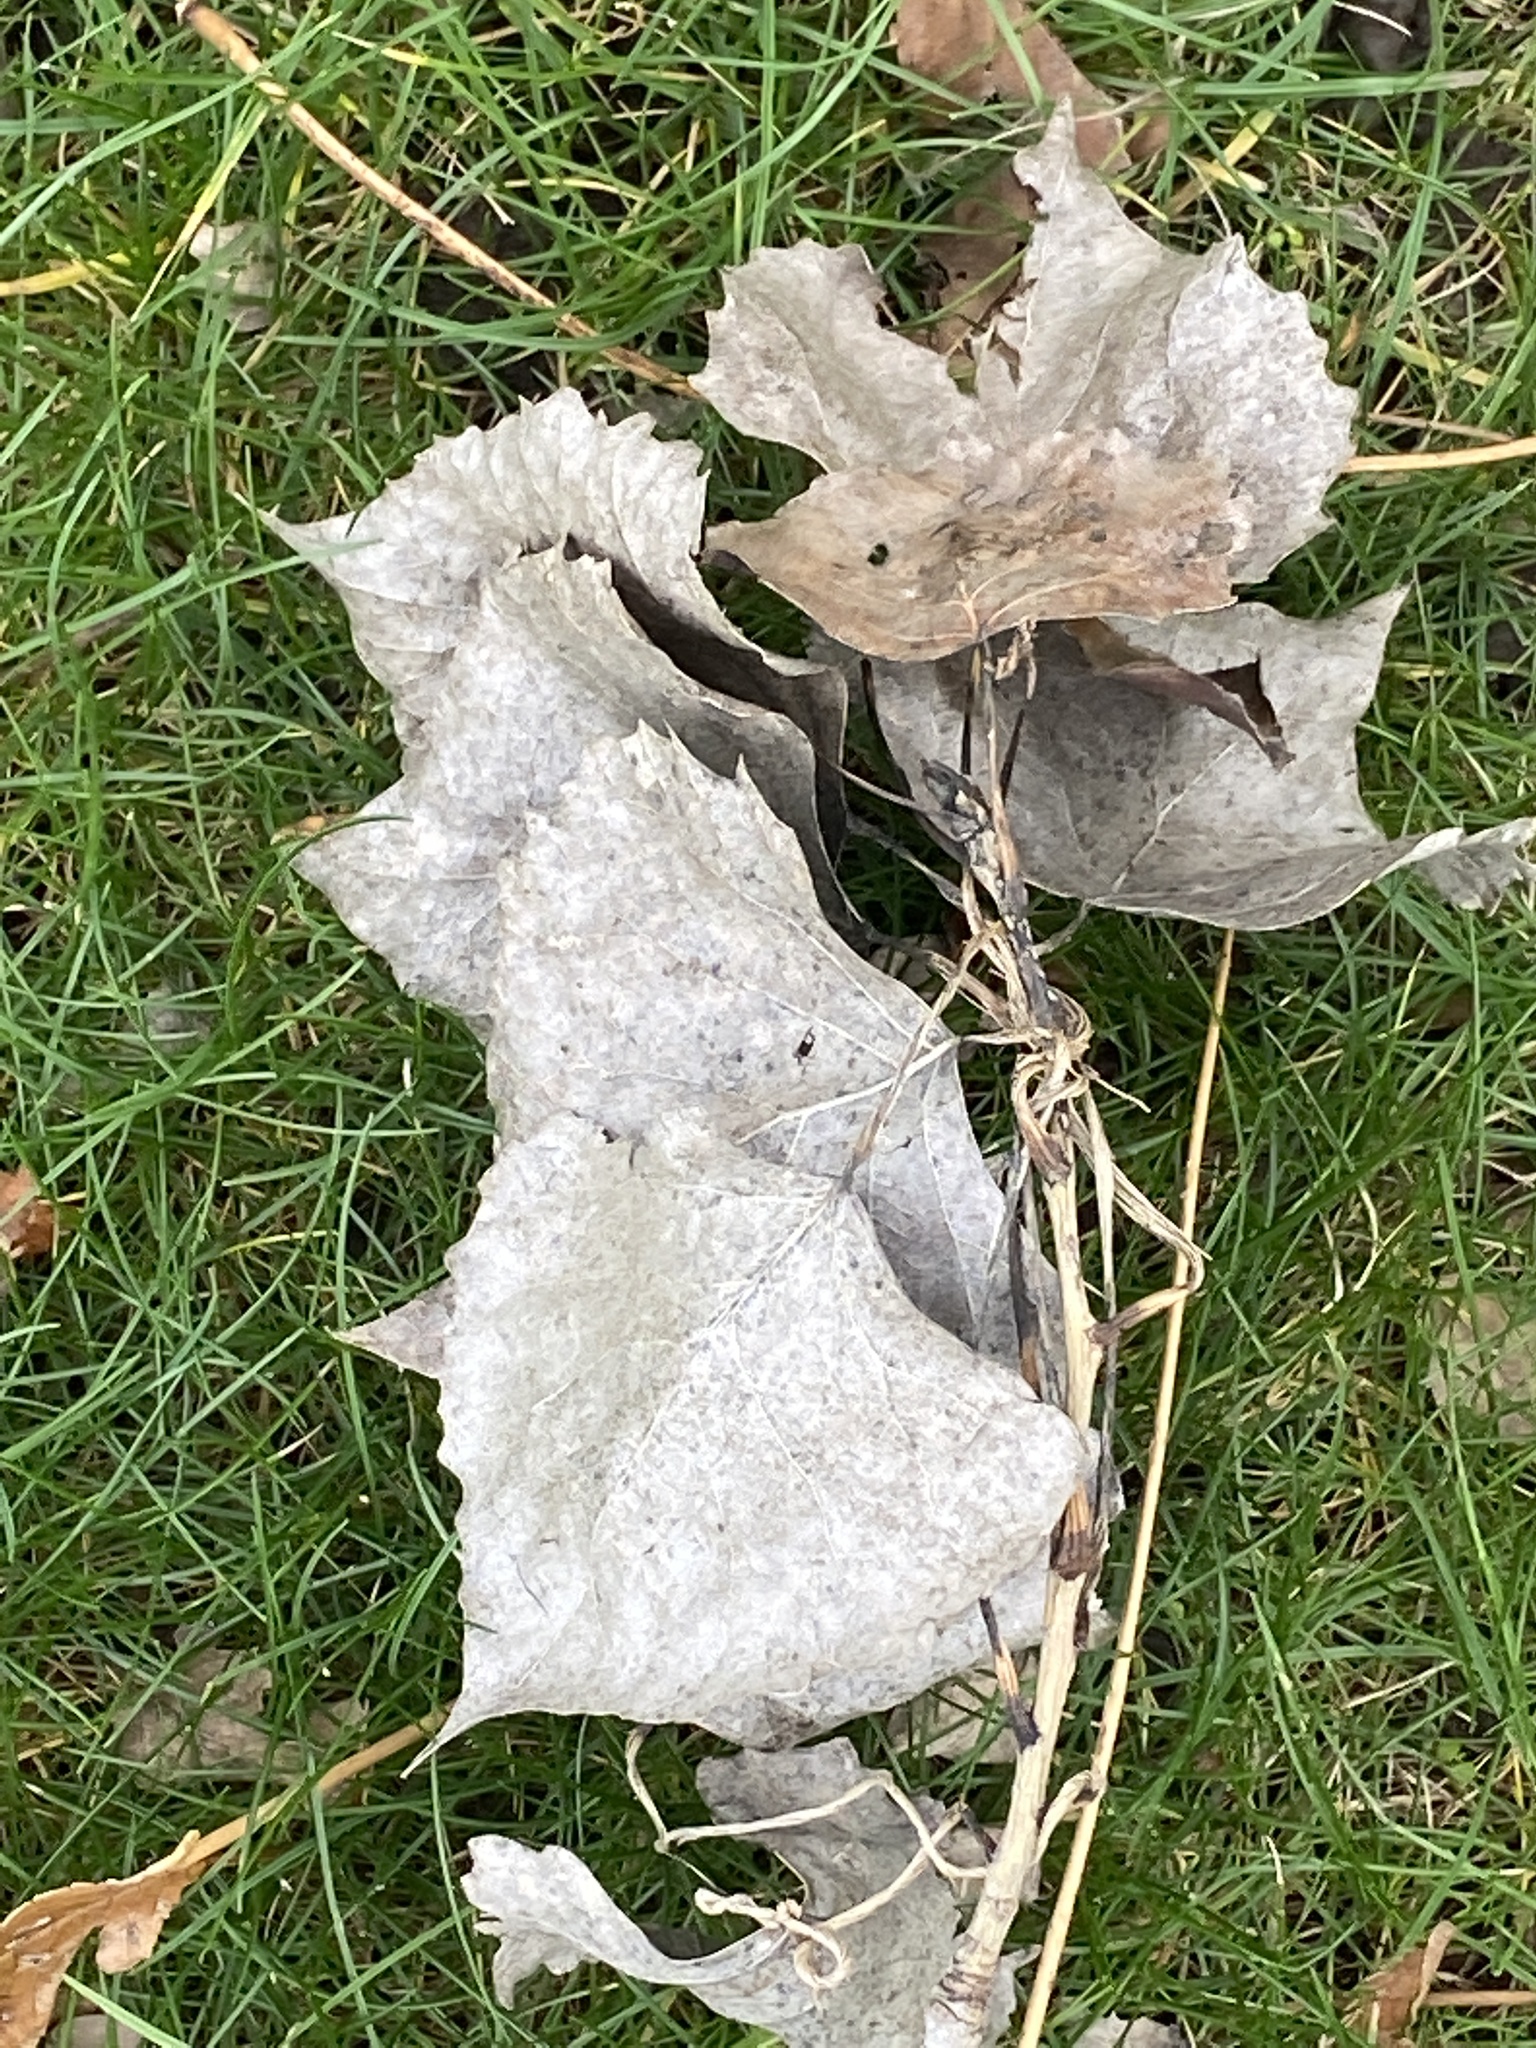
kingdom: Plantae
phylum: Tracheophyta
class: Magnoliopsida
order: Malpighiales
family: Salicaceae
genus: Populus
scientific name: Populus deltoides
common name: Eastern cottonwood
